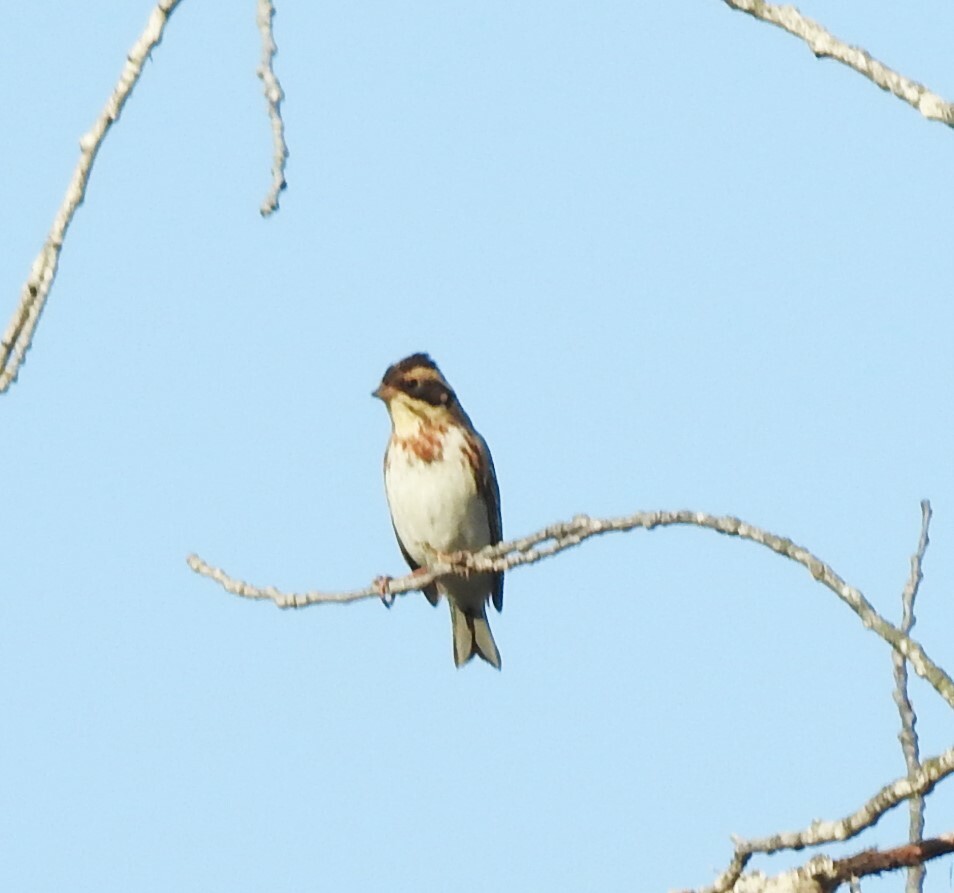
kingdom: Animalia
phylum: Chordata
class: Aves
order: Passeriformes
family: Emberizidae
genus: Emberiza
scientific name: Emberiza rustica
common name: Rustic bunting
